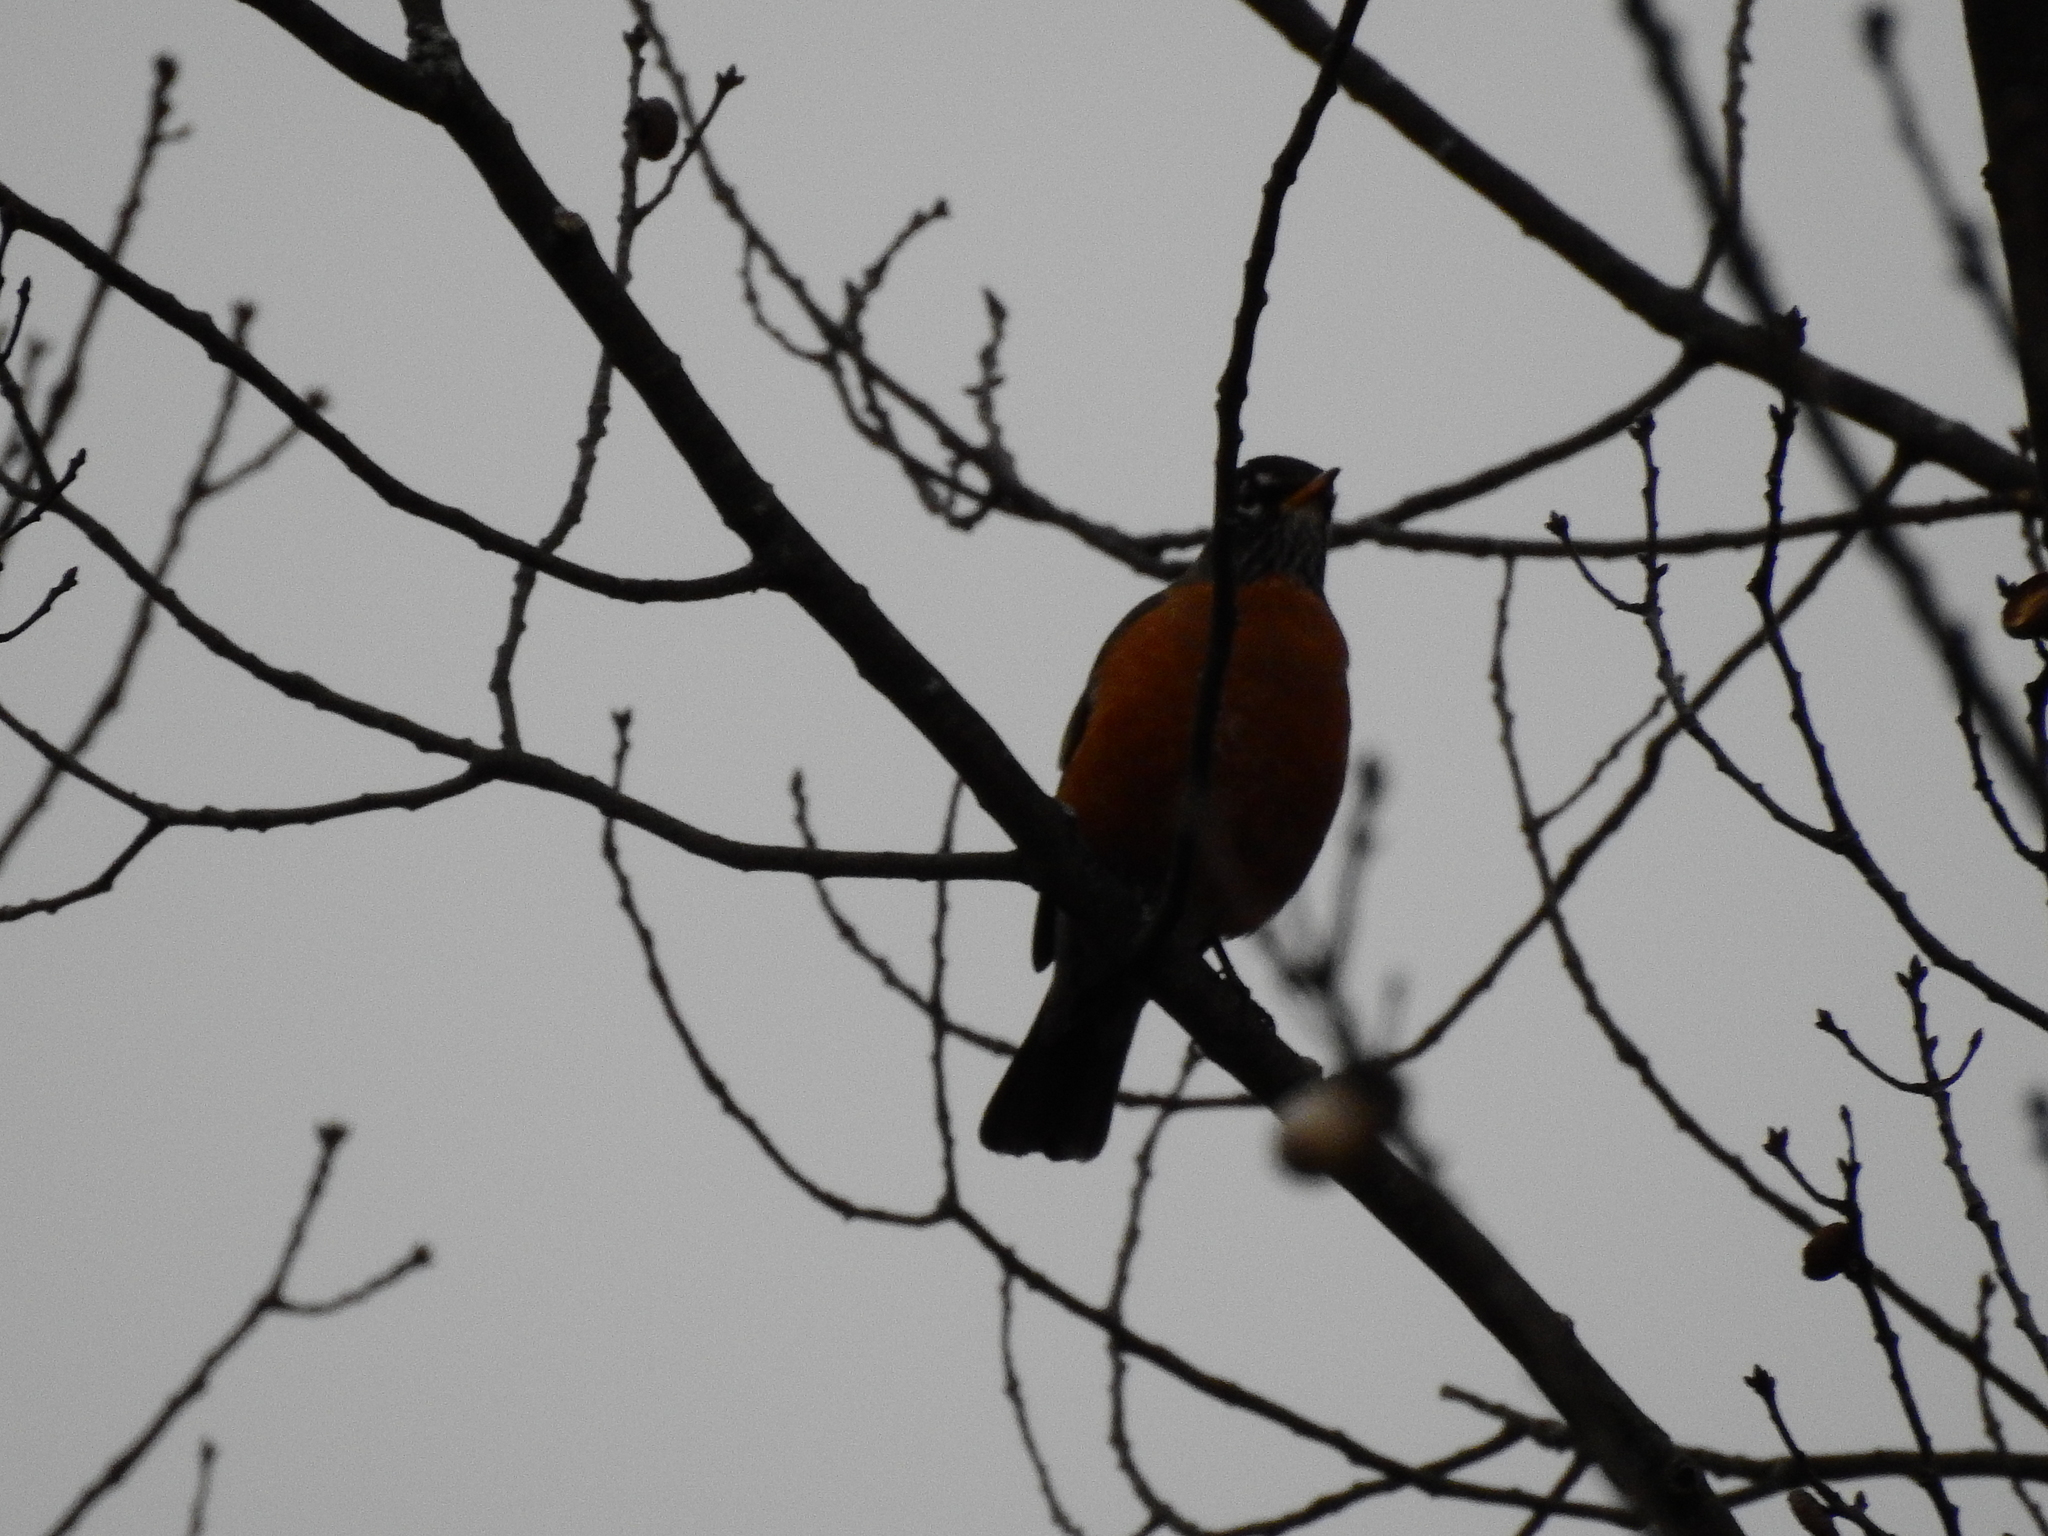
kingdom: Animalia
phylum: Chordata
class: Aves
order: Passeriformes
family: Turdidae
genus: Turdus
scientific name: Turdus migratorius
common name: American robin
